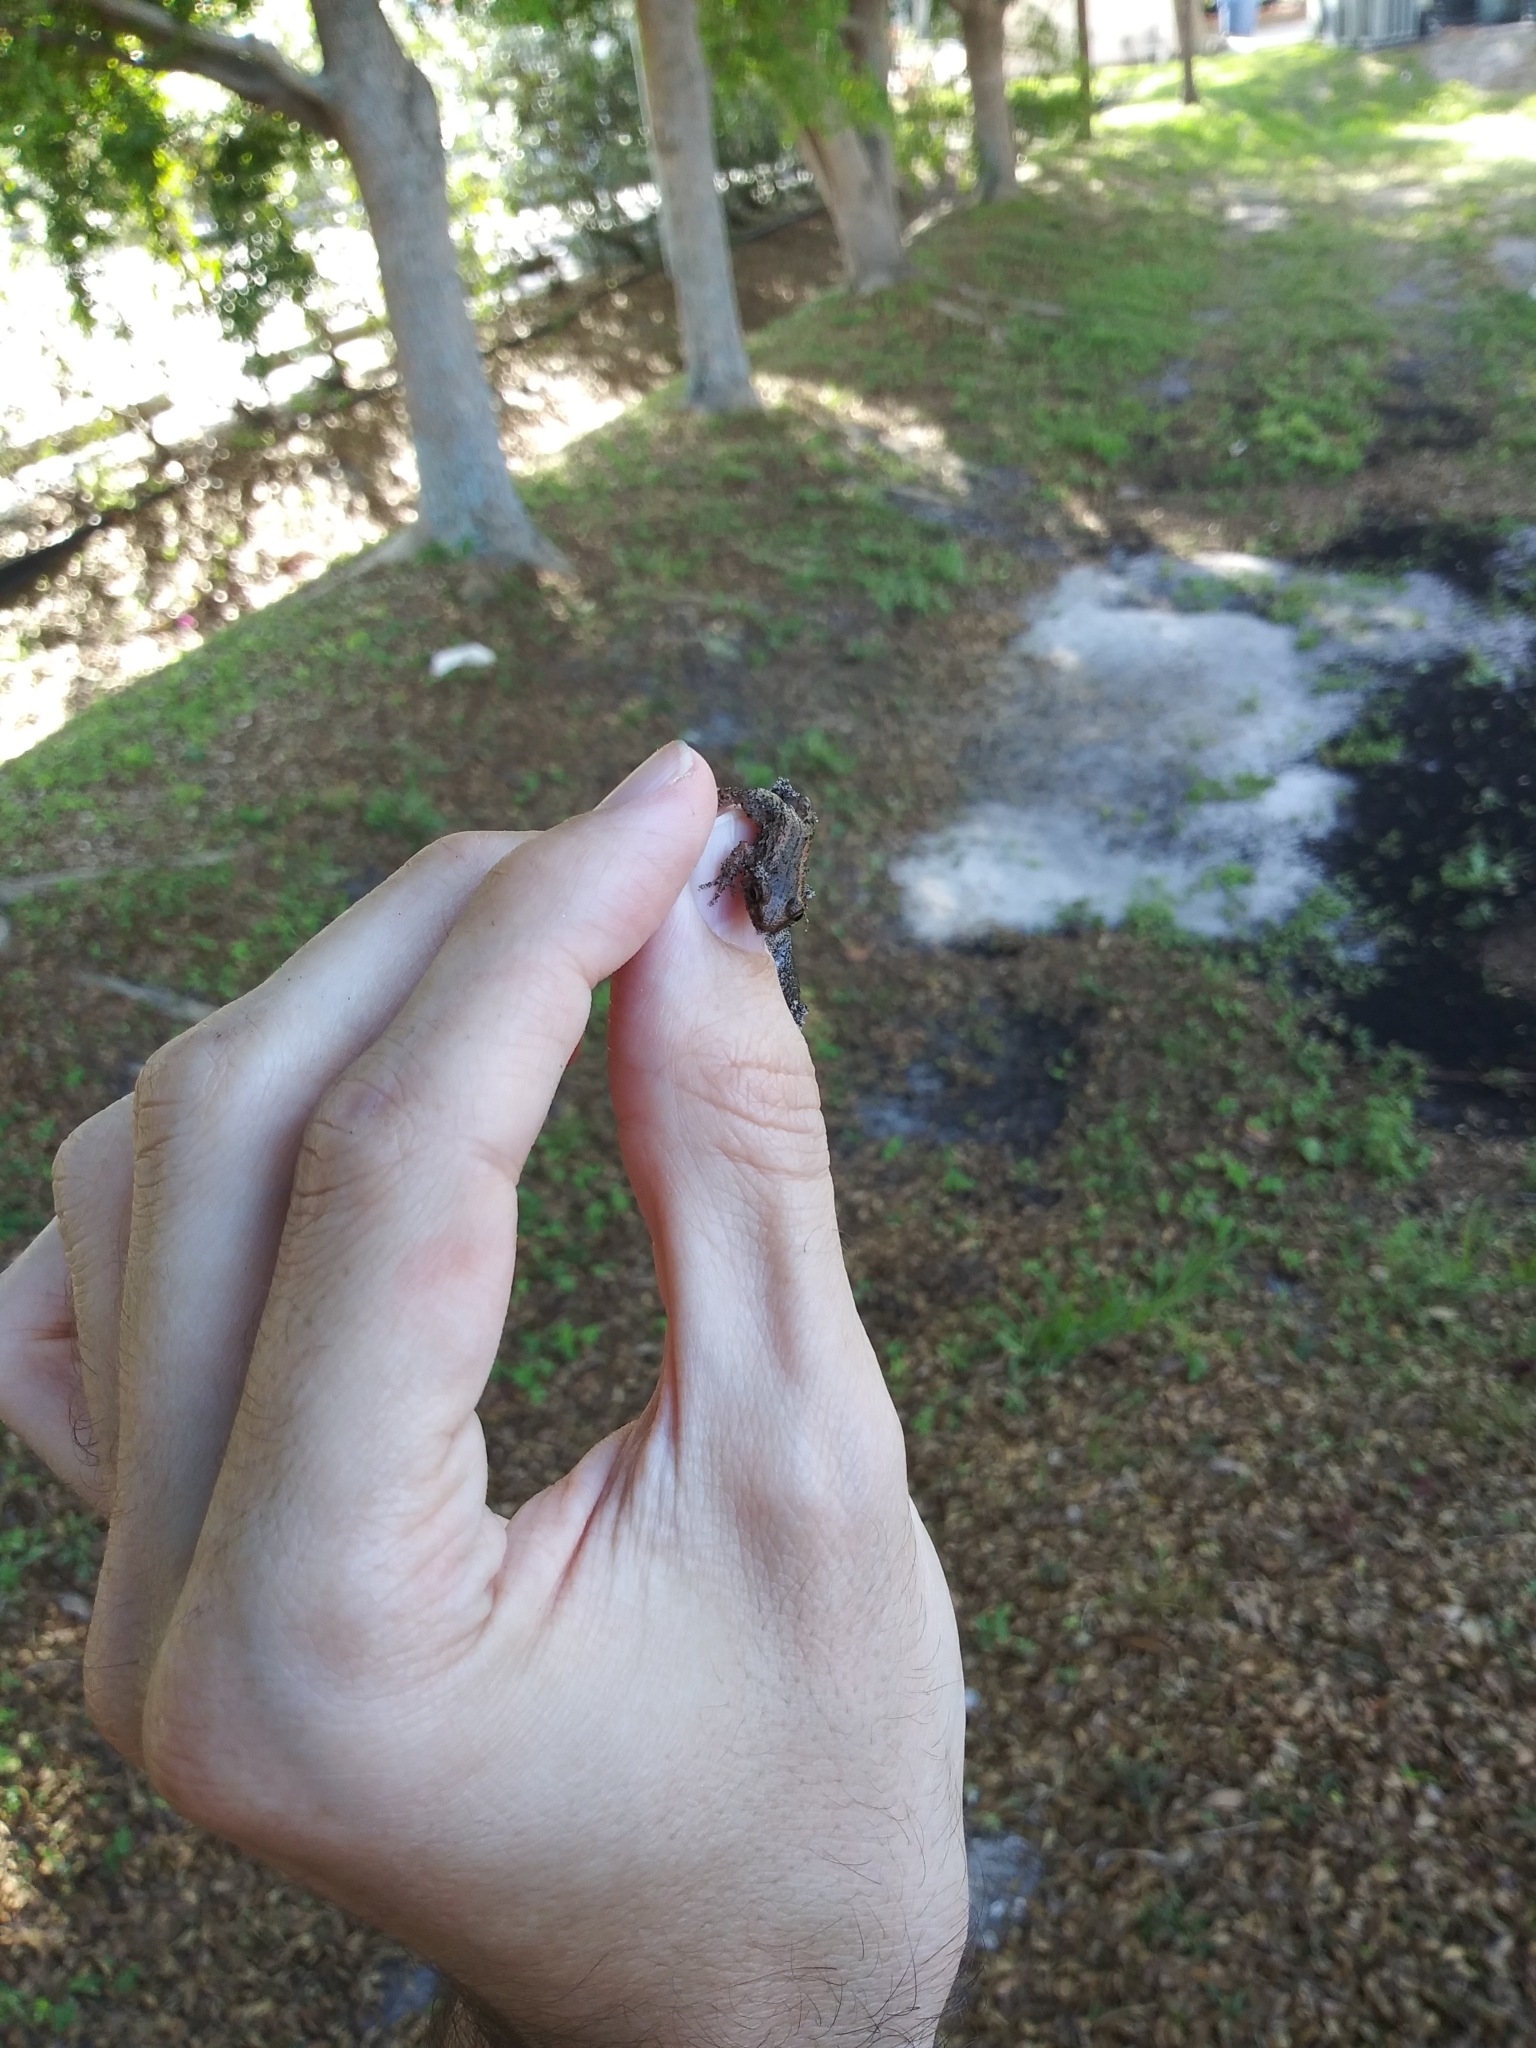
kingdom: Animalia
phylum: Chordata
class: Amphibia
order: Anura
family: Eleutherodactylidae
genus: Eleutherodactylus
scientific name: Eleutherodactylus planirostris
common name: Greenhouse frog
